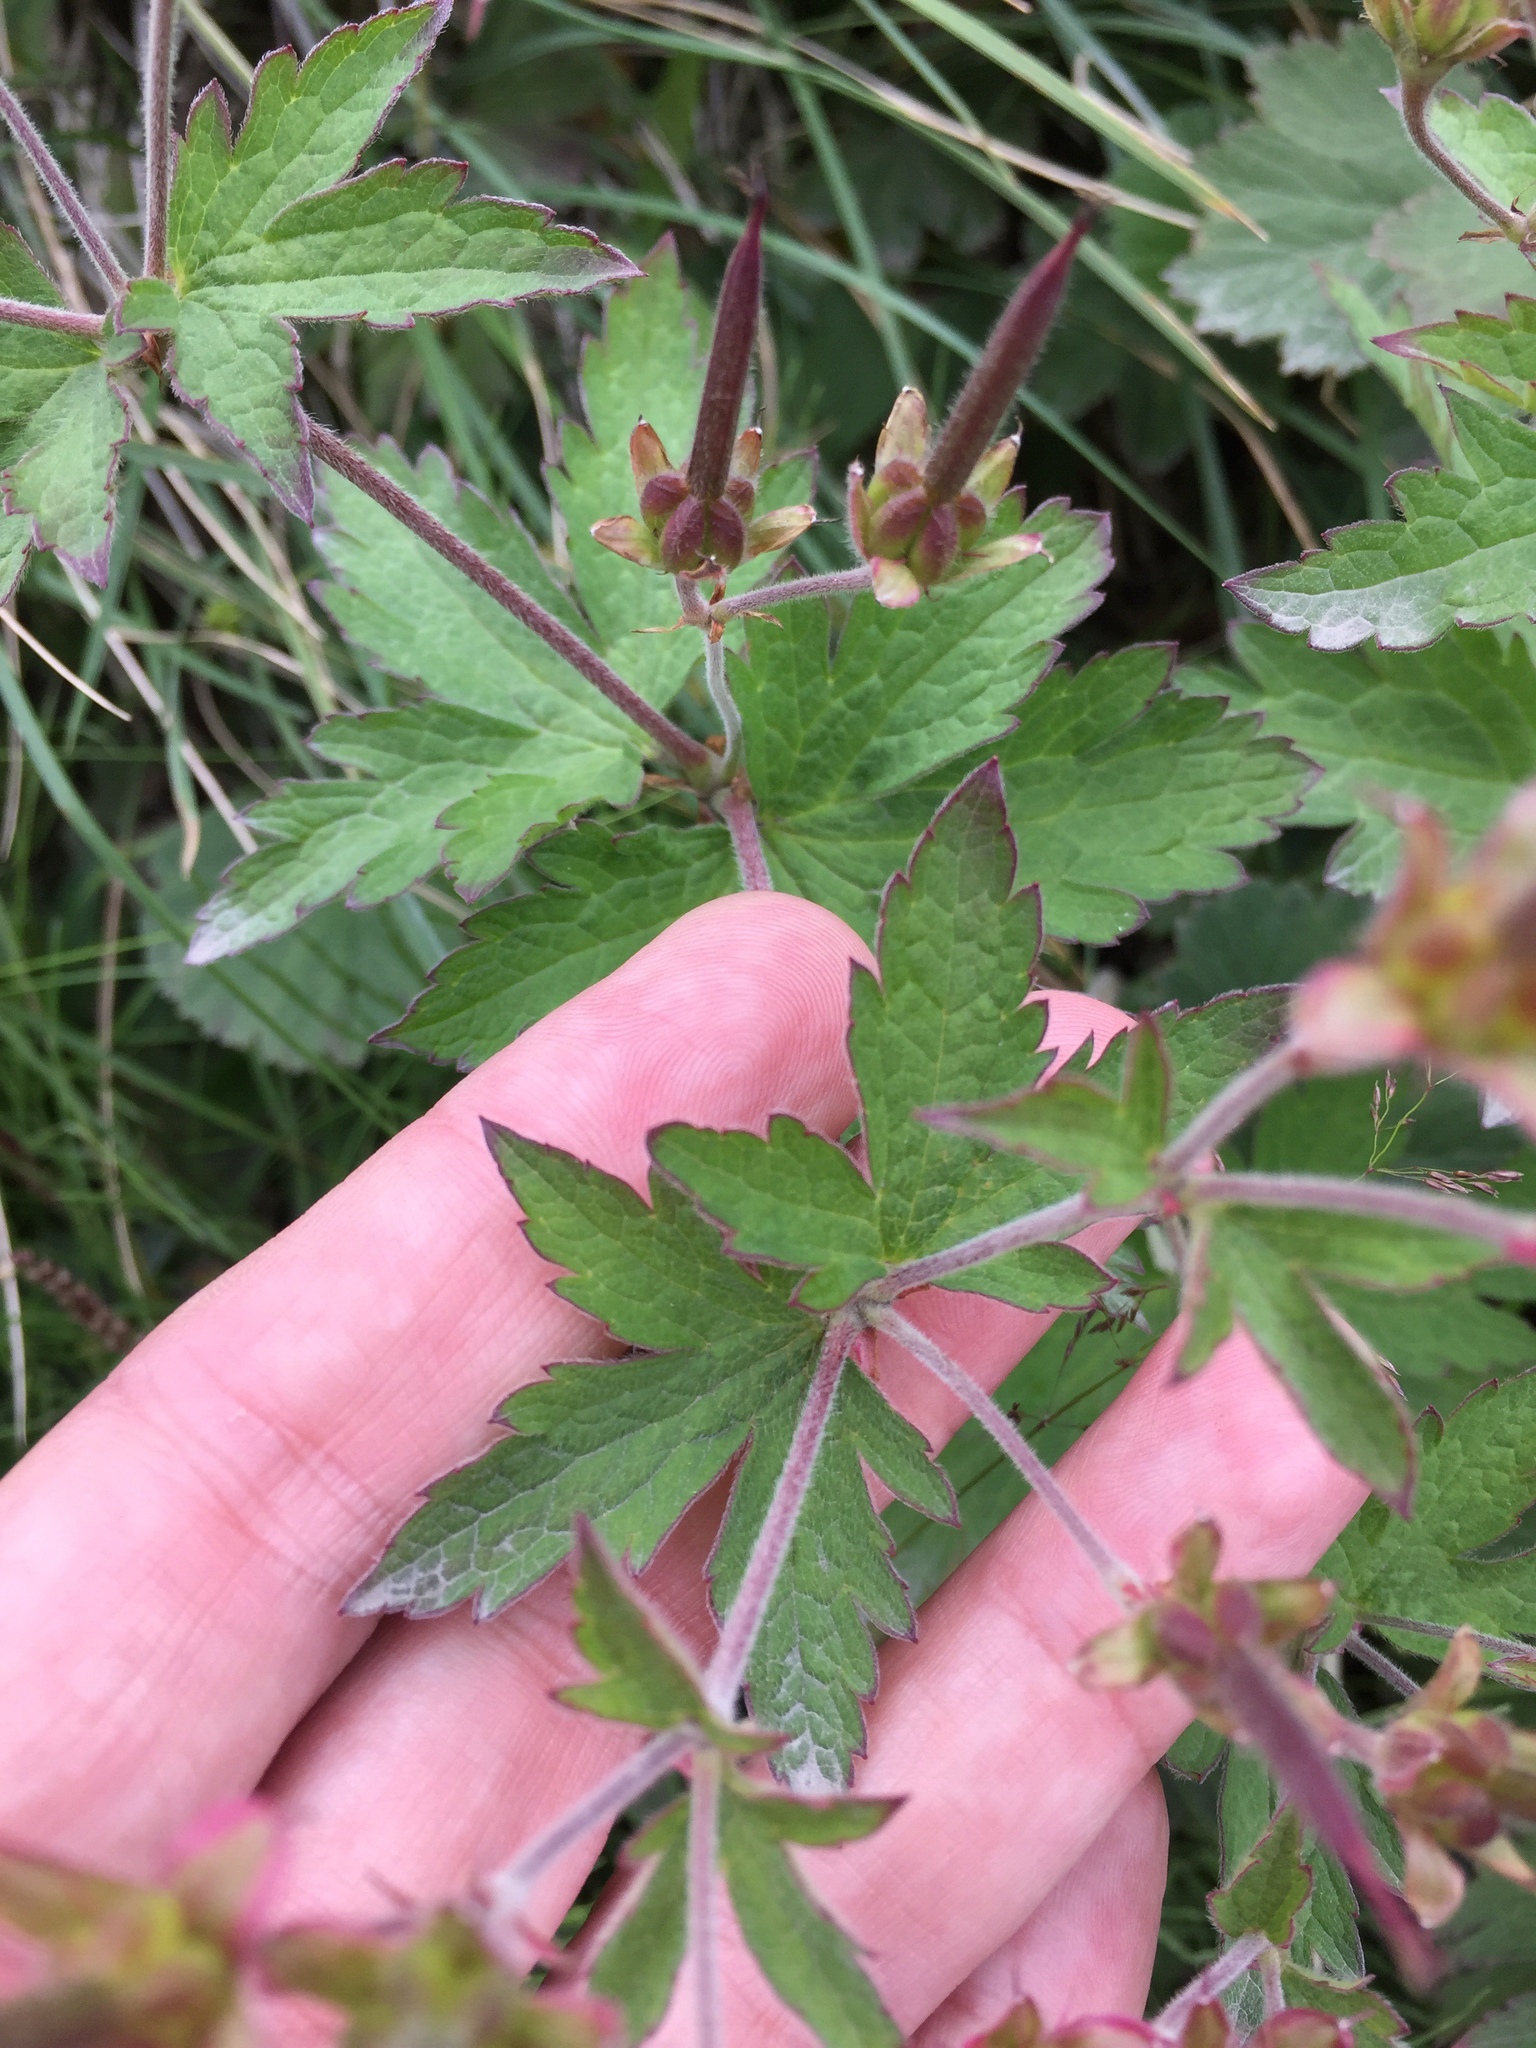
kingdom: Plantae
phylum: Tracheophyta
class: Magnoliopsida
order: Geraniales
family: Geraniaceae
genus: Geranium
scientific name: Geranium sylvaticum
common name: Wood crane's-bill
